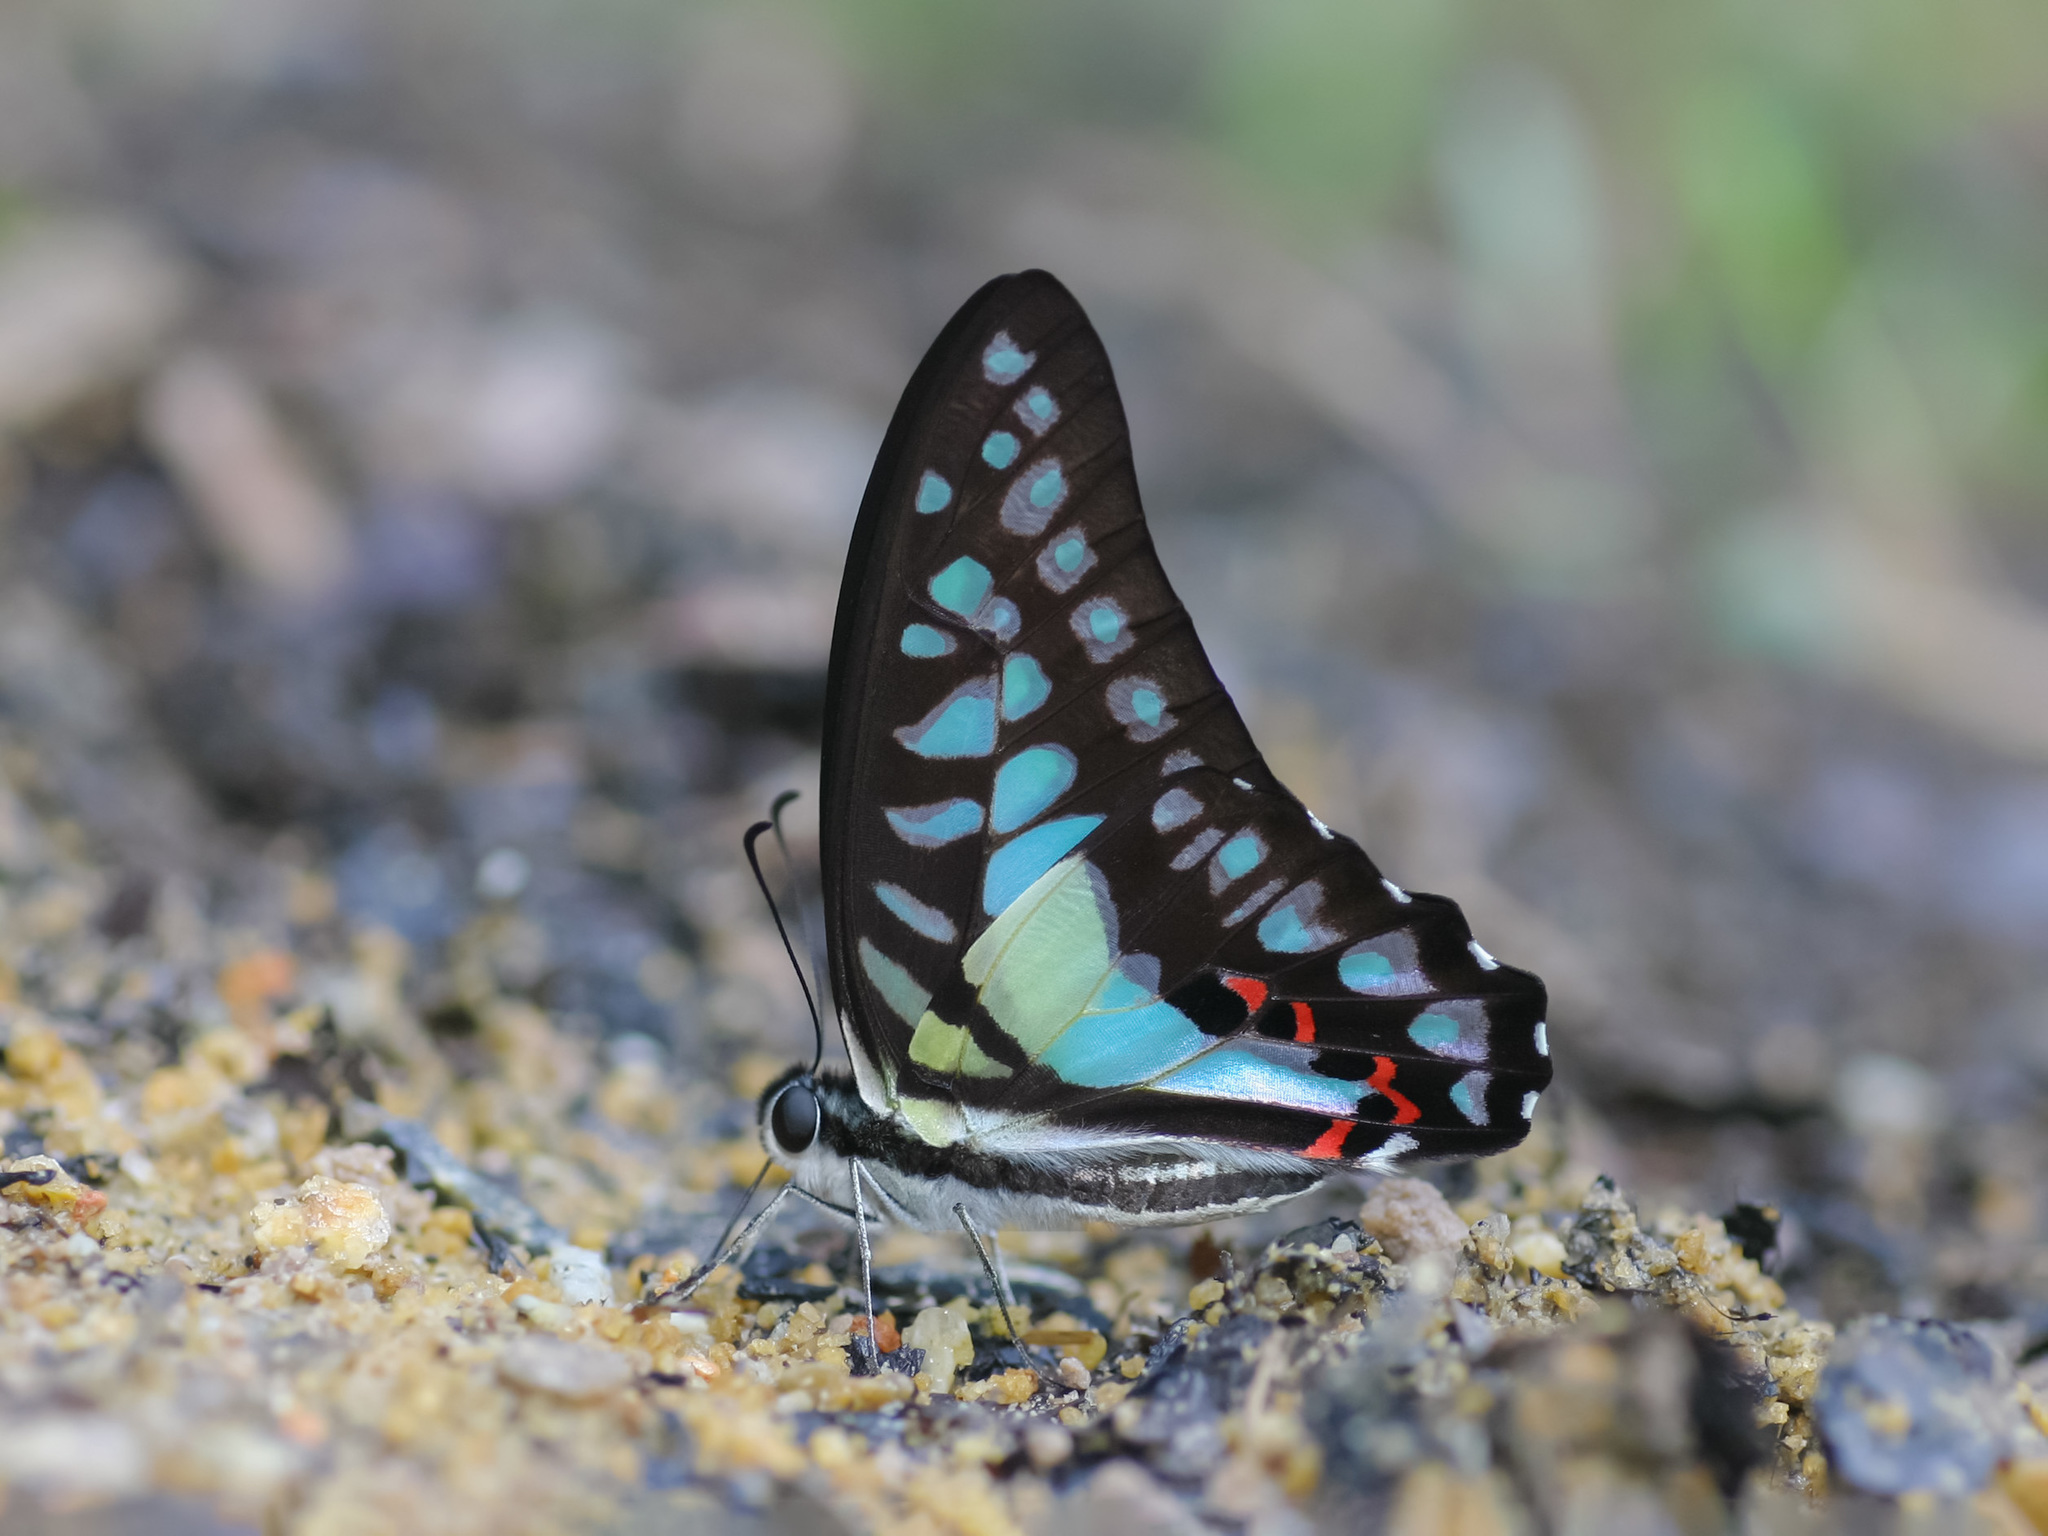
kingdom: Animalia
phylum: Arthropoda
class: Insecta
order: Lepidoptera
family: Papilionidae
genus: Graphium
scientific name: Graphium evemon
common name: Lesser jay
